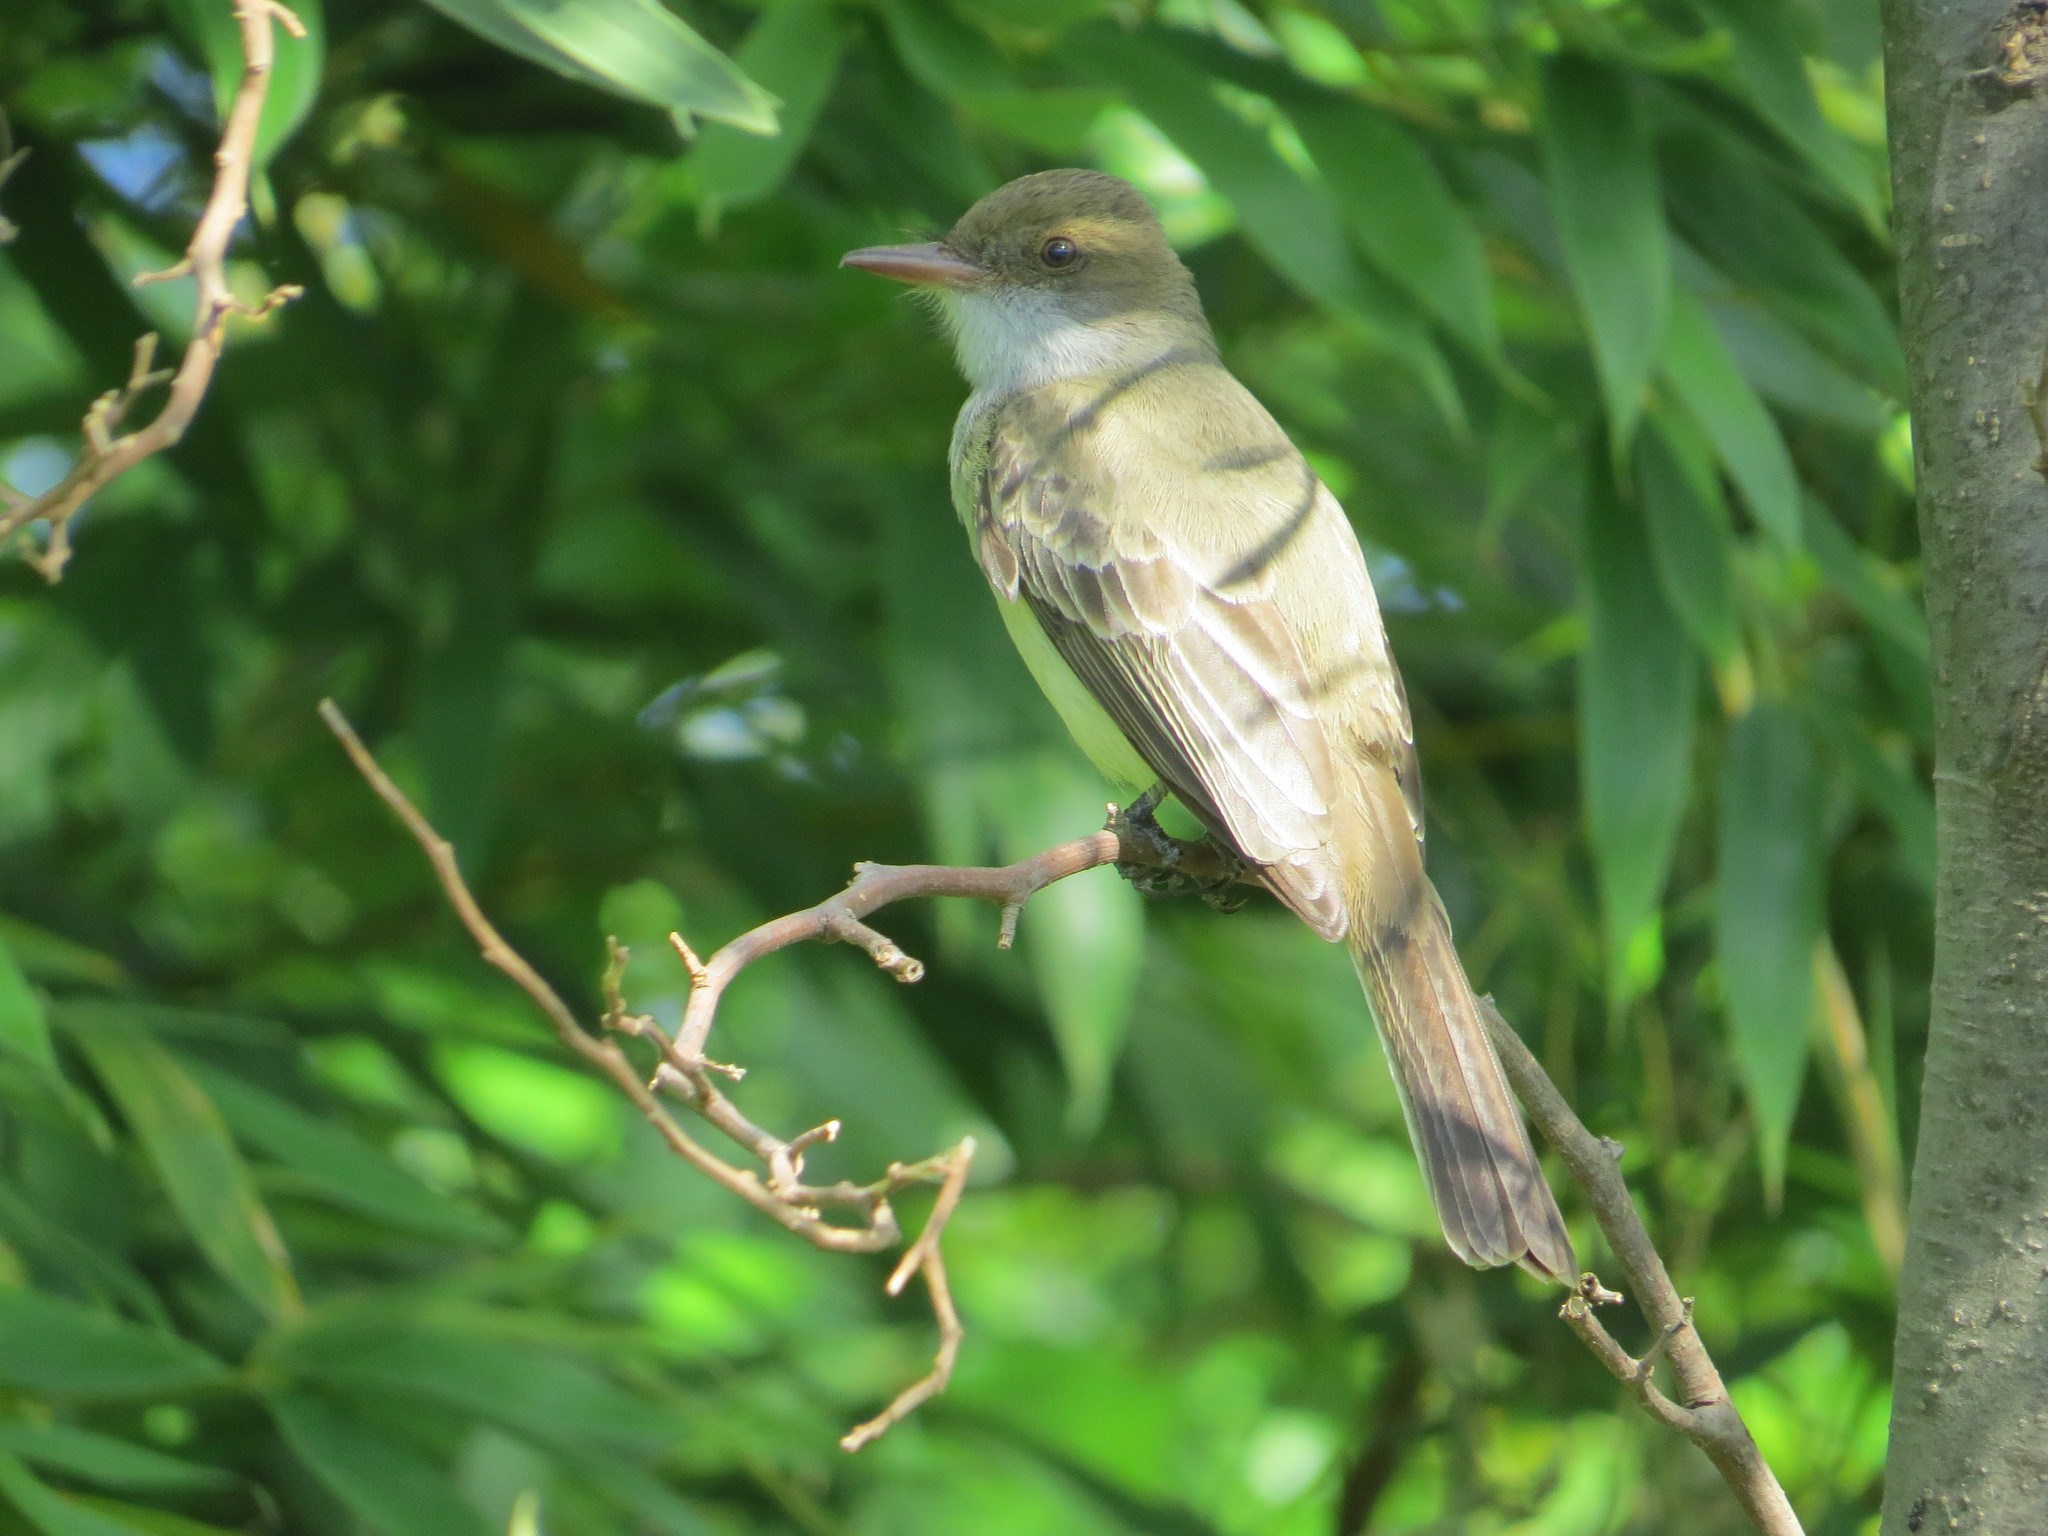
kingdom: Animalia
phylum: Chordata
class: Aves
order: Passeriformes
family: Tyrannidae
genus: Myiarchus
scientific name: Myiarchus swainsoni
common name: Swainson's flycatcher
